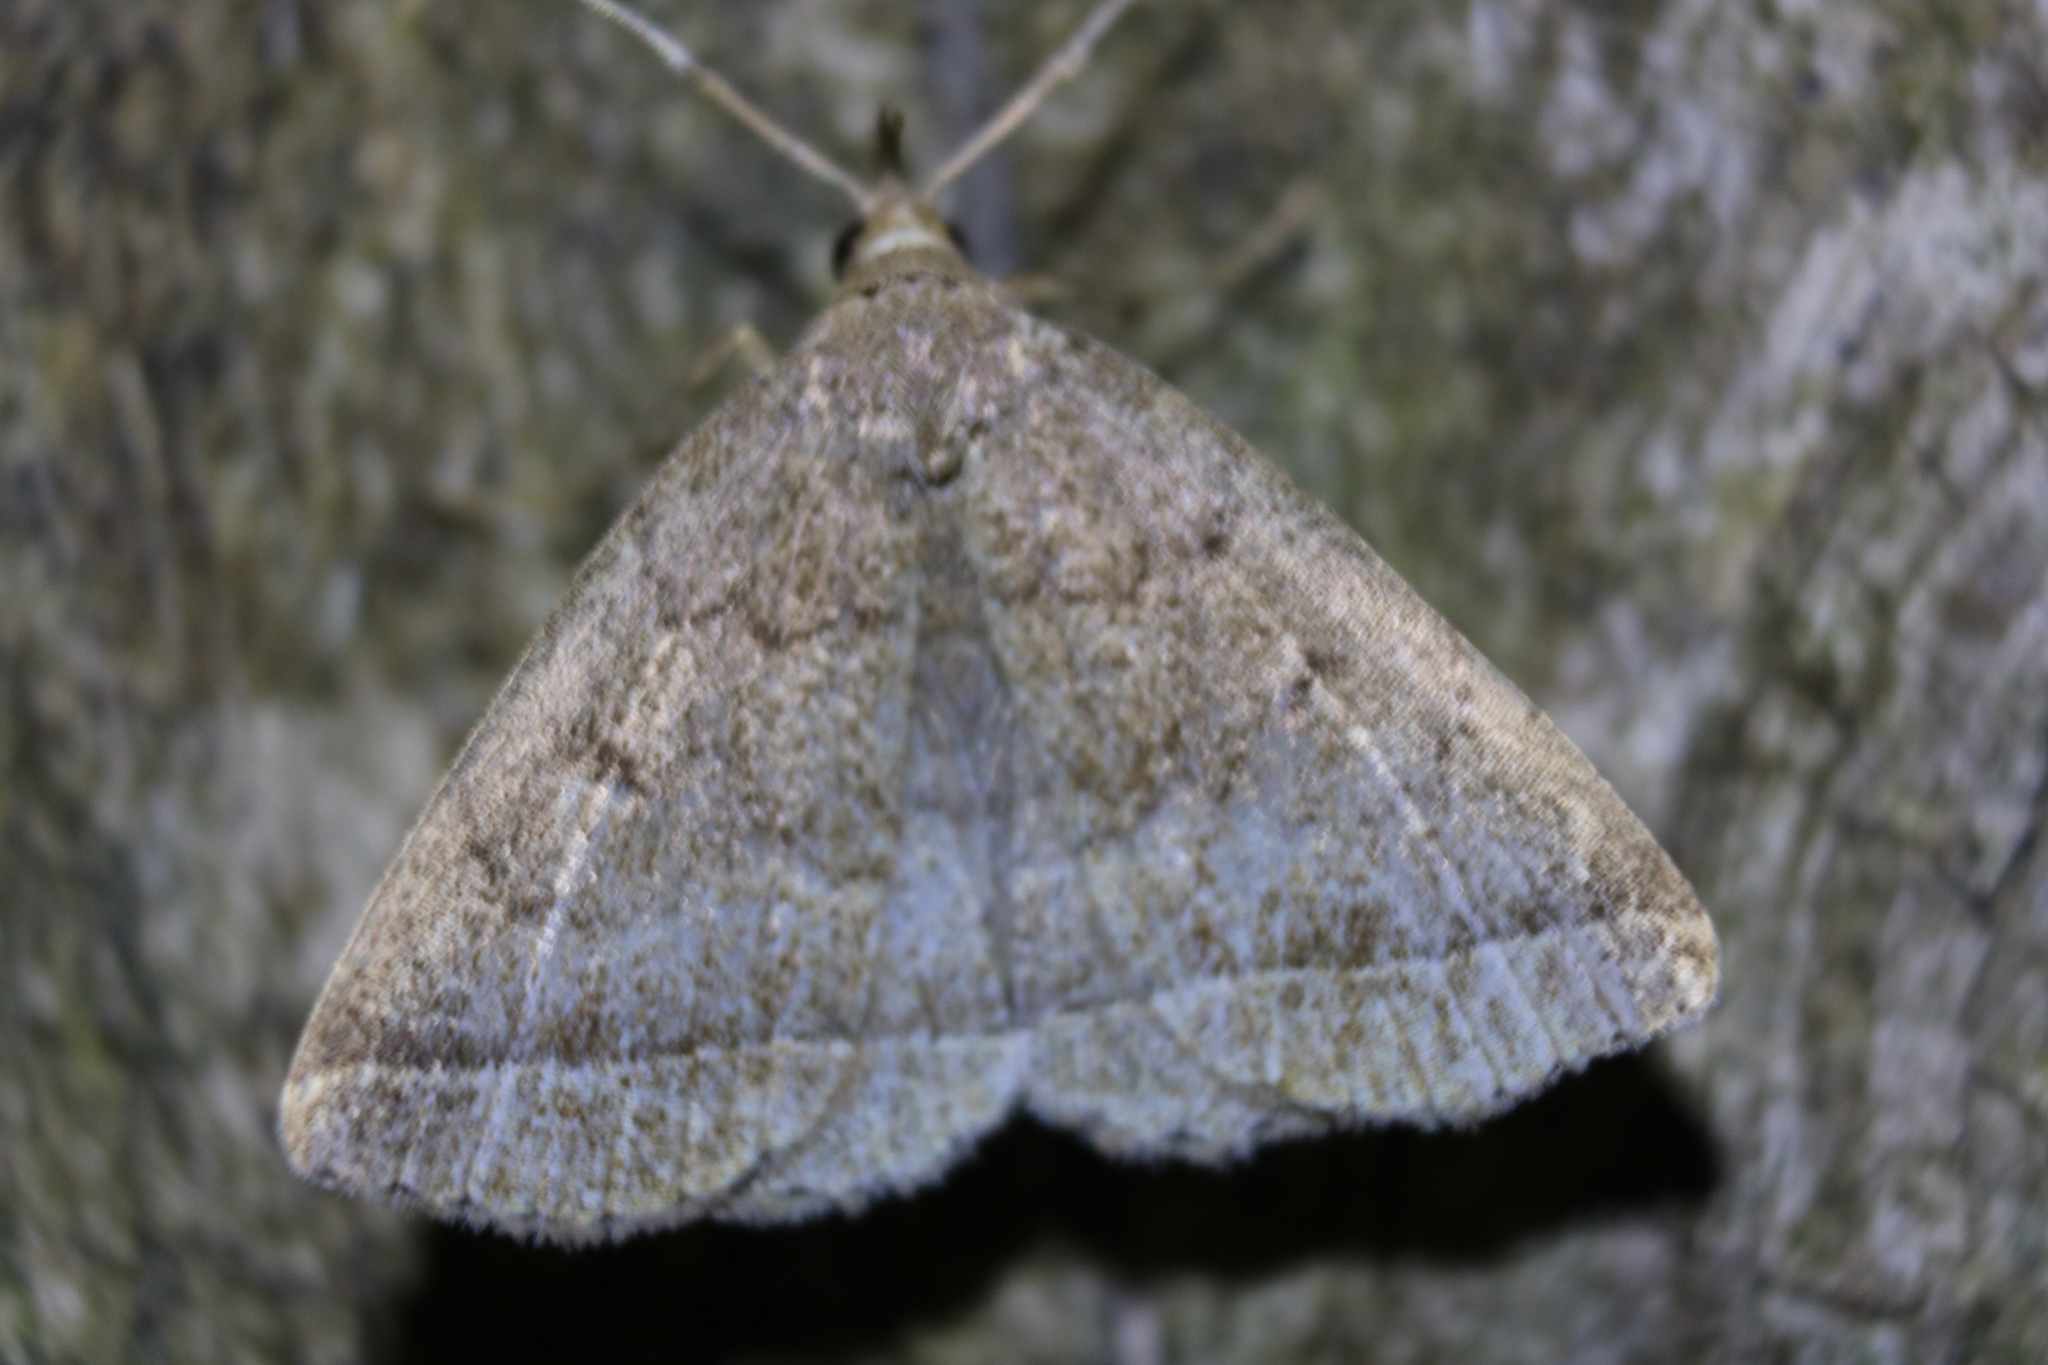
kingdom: Animalia
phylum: Arthropoda
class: Insecta
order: Lepidoptera
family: Erebidae
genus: Zanclognatha
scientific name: Zanclognatha jacchusalis
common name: Yellowish zanclognatha
